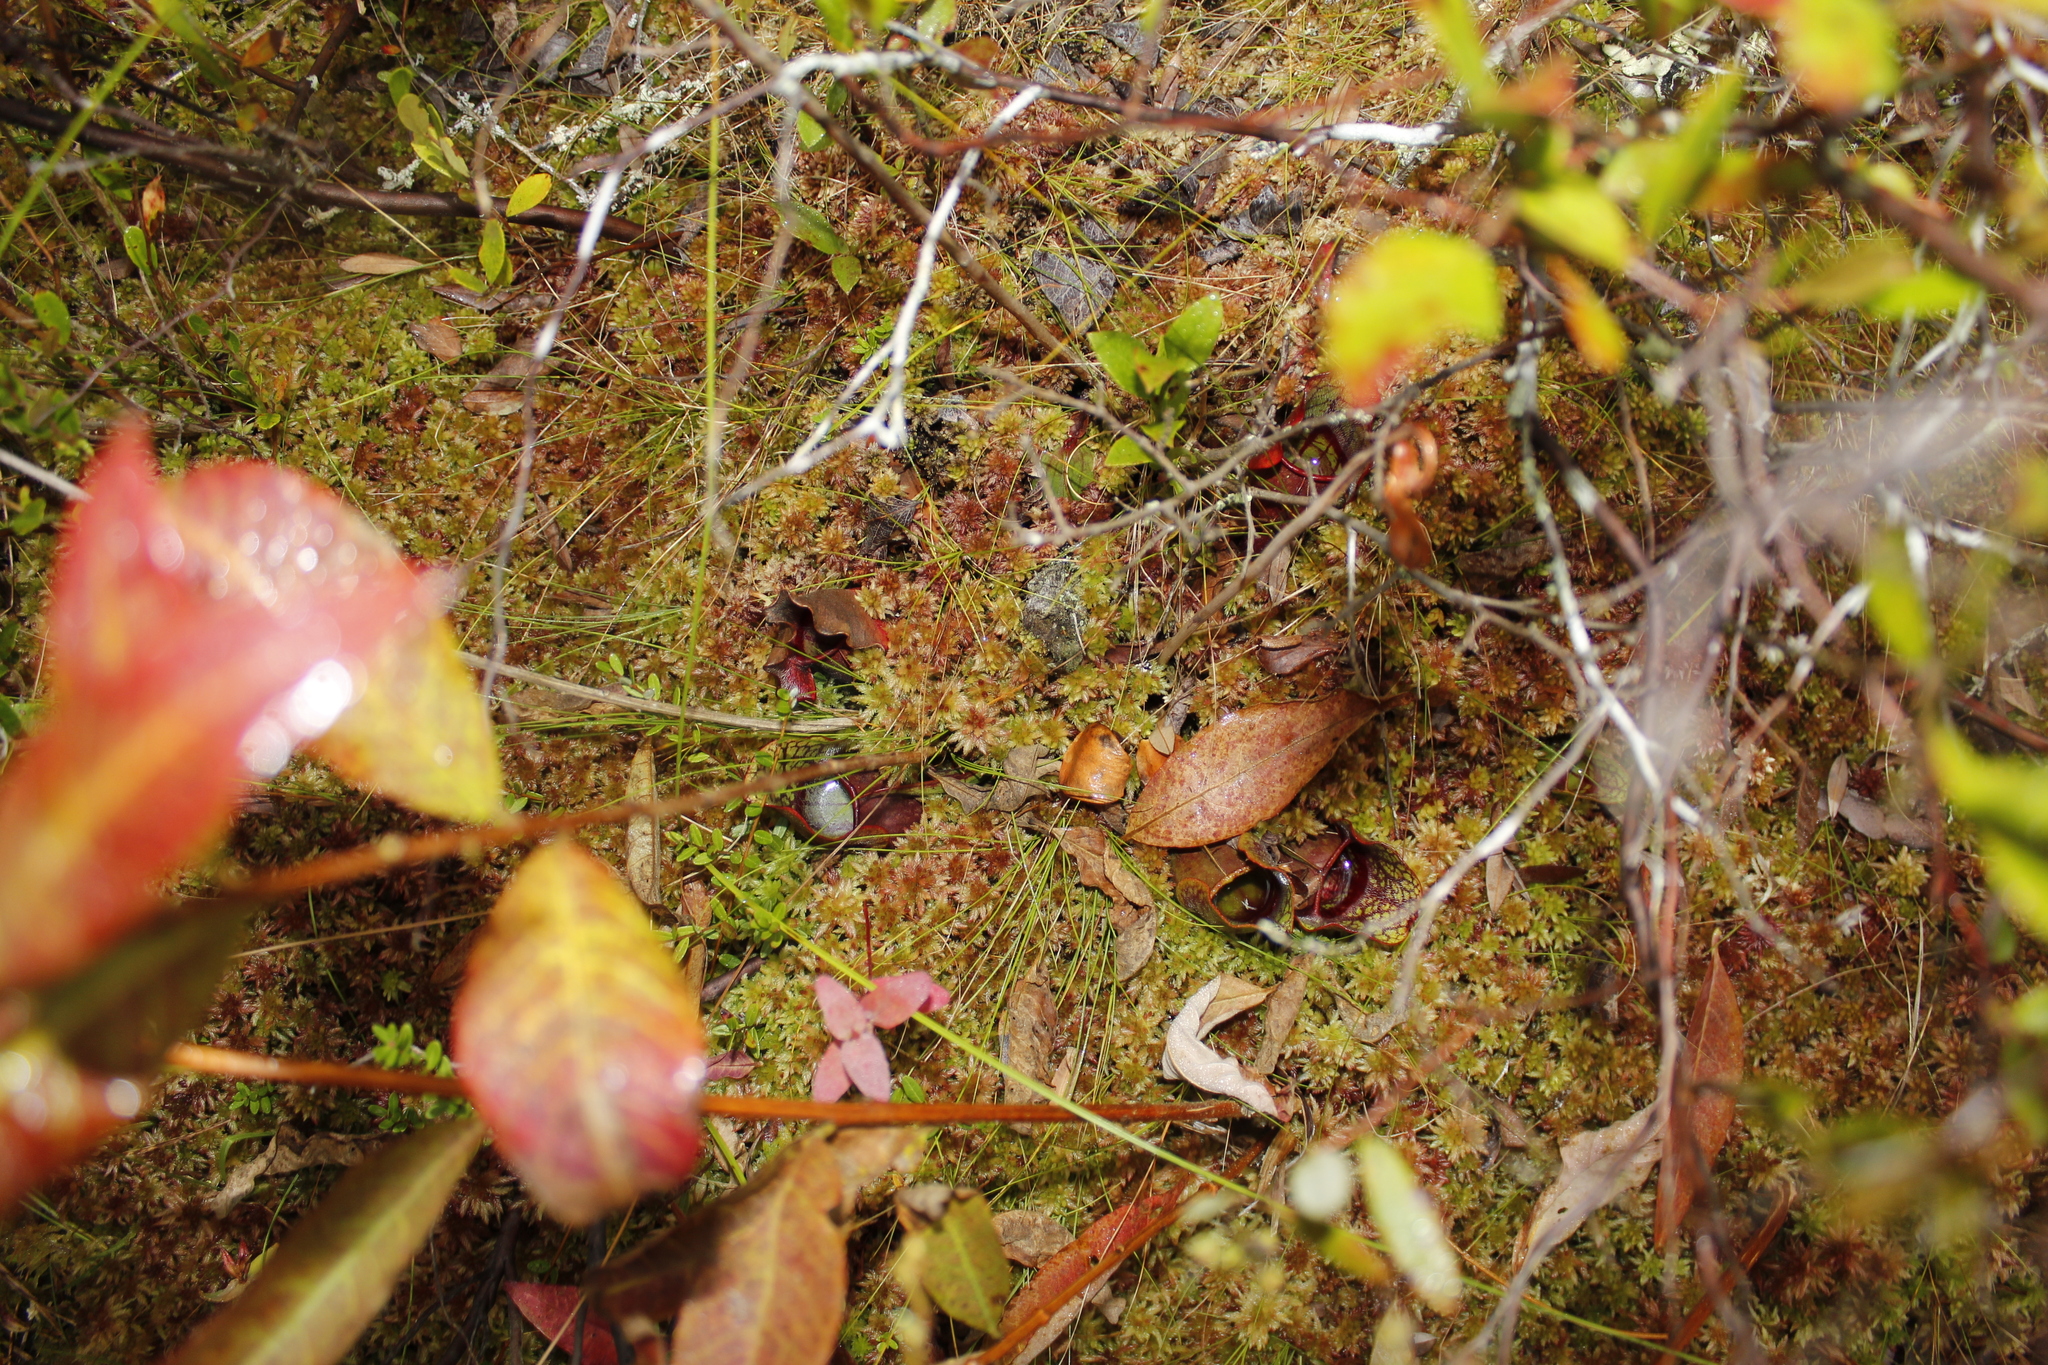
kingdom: Plantae
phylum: Tracheophyta
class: Magnoliopsida
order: Ericales
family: Sarraceniaceae
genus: Sarracenia
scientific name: Sarracenia purpurea
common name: Pitcherplant
